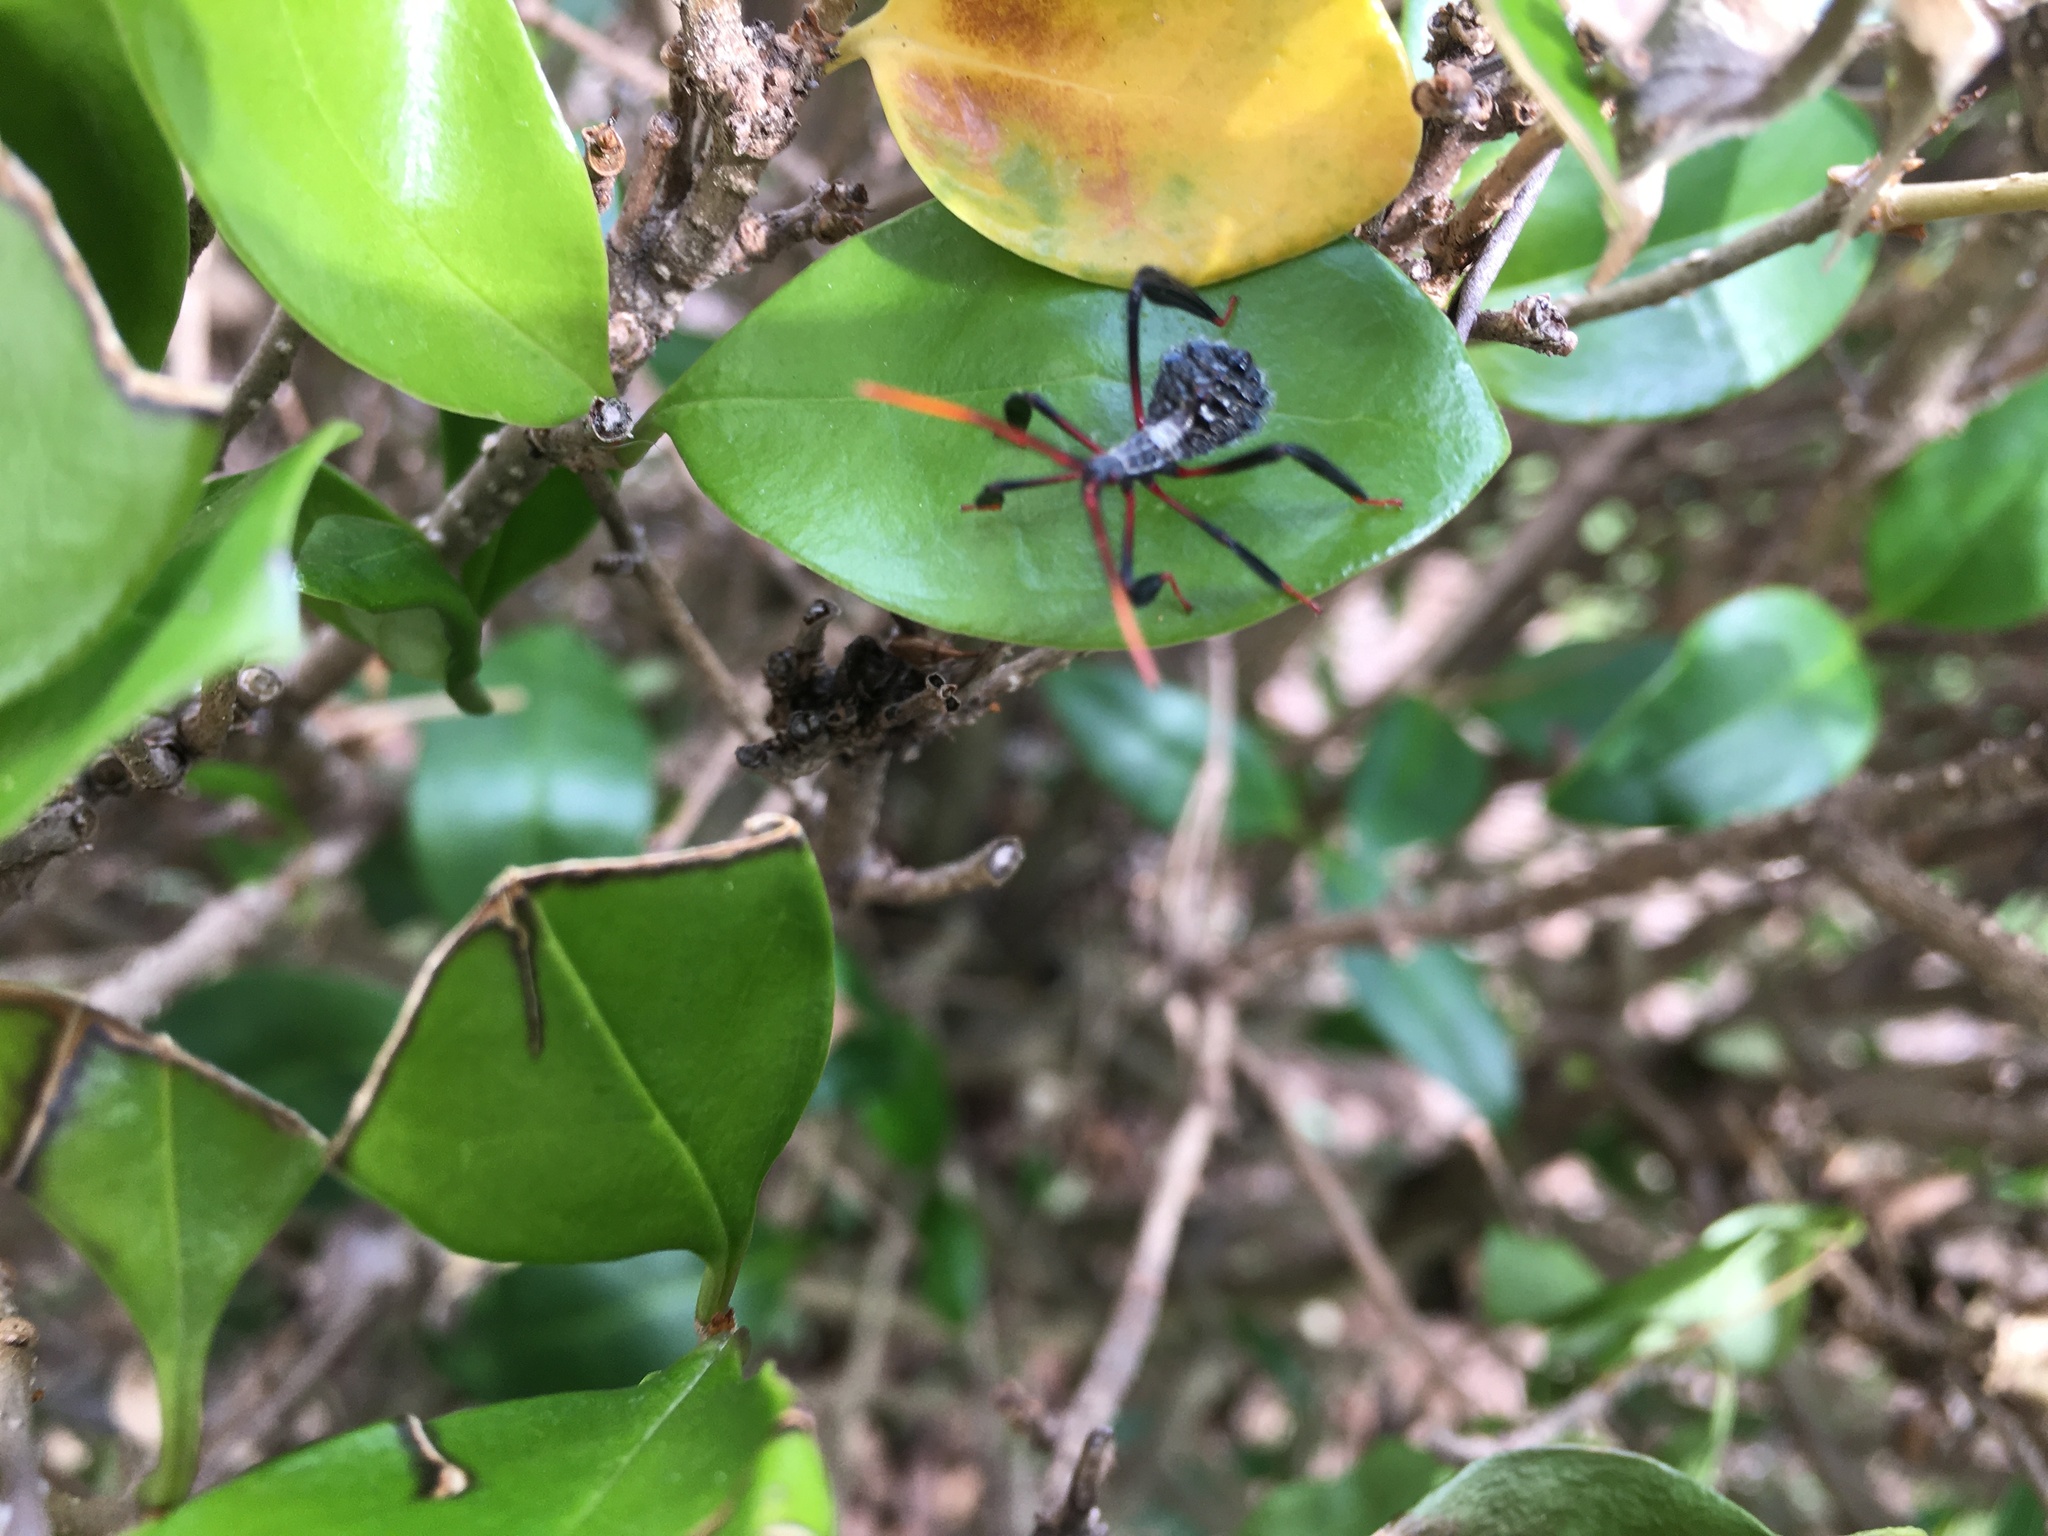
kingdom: Animalia
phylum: Arthropoda
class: Insecta
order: Hemiptera
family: Coreidae
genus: Acanthocephala
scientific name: Acanthocephala terminalis
